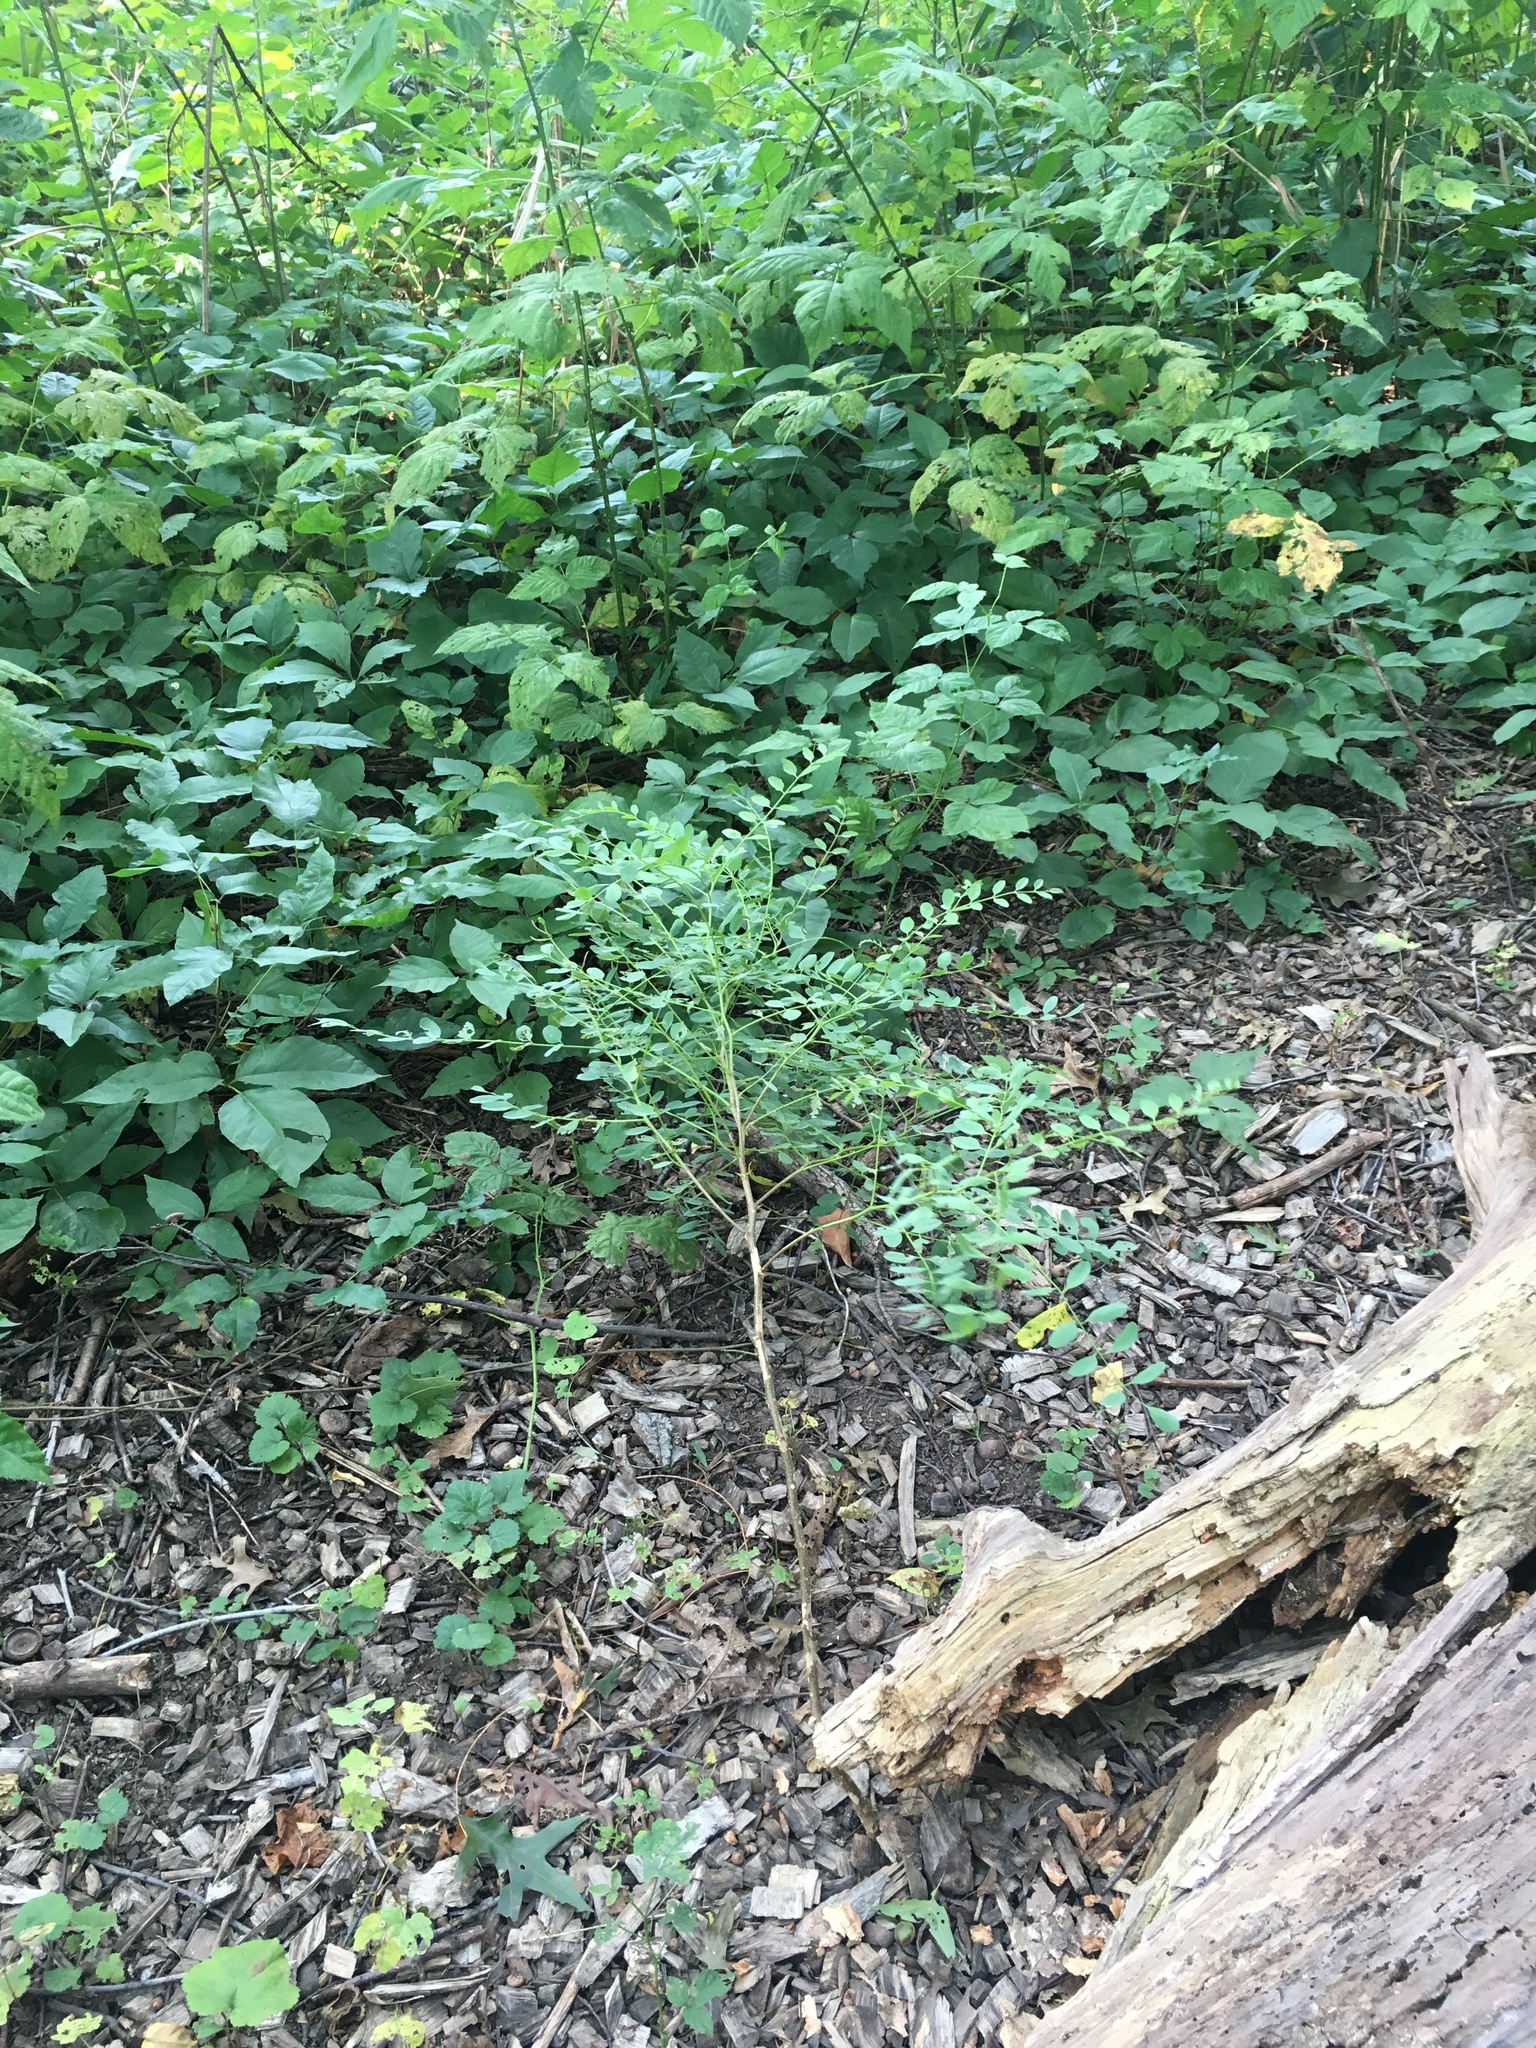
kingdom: Plantae
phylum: Tracheophyta
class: Magnoliopsida
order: Fabales
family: Fabaceae
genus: Robinia
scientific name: Robinia pseudoacacia
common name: Black locust
